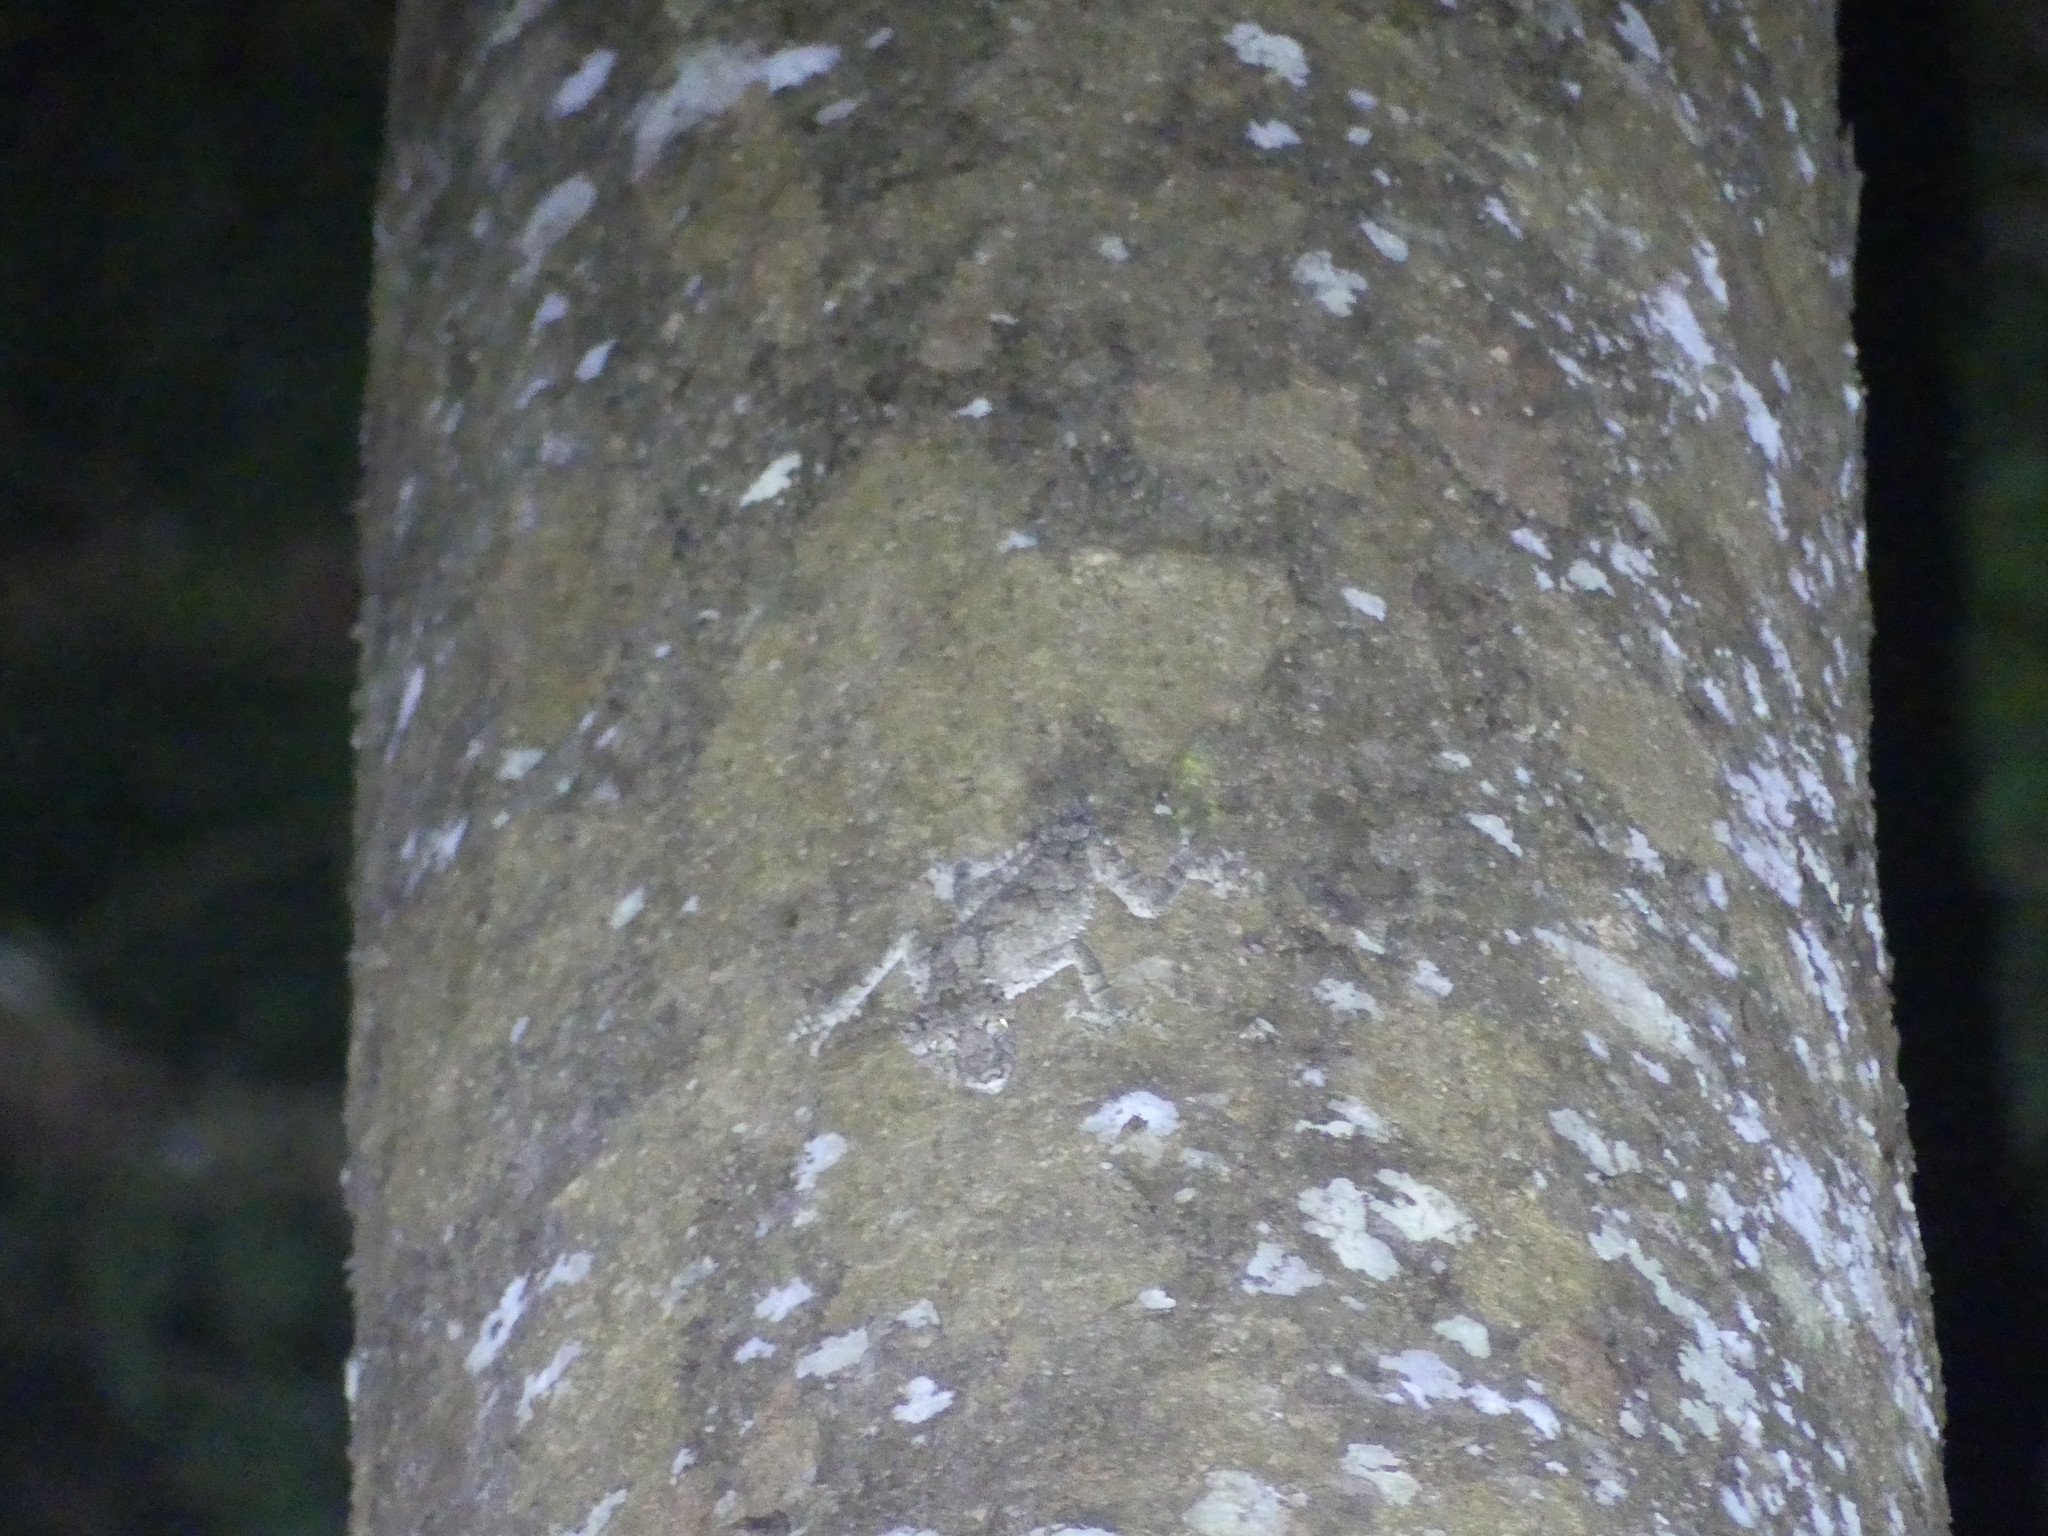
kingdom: Animalia
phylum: Chordata
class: Squamata
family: Carphodactylidae
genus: Saltuarius
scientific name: Saltuarius cornutus
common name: Leaf-tailed gecko
